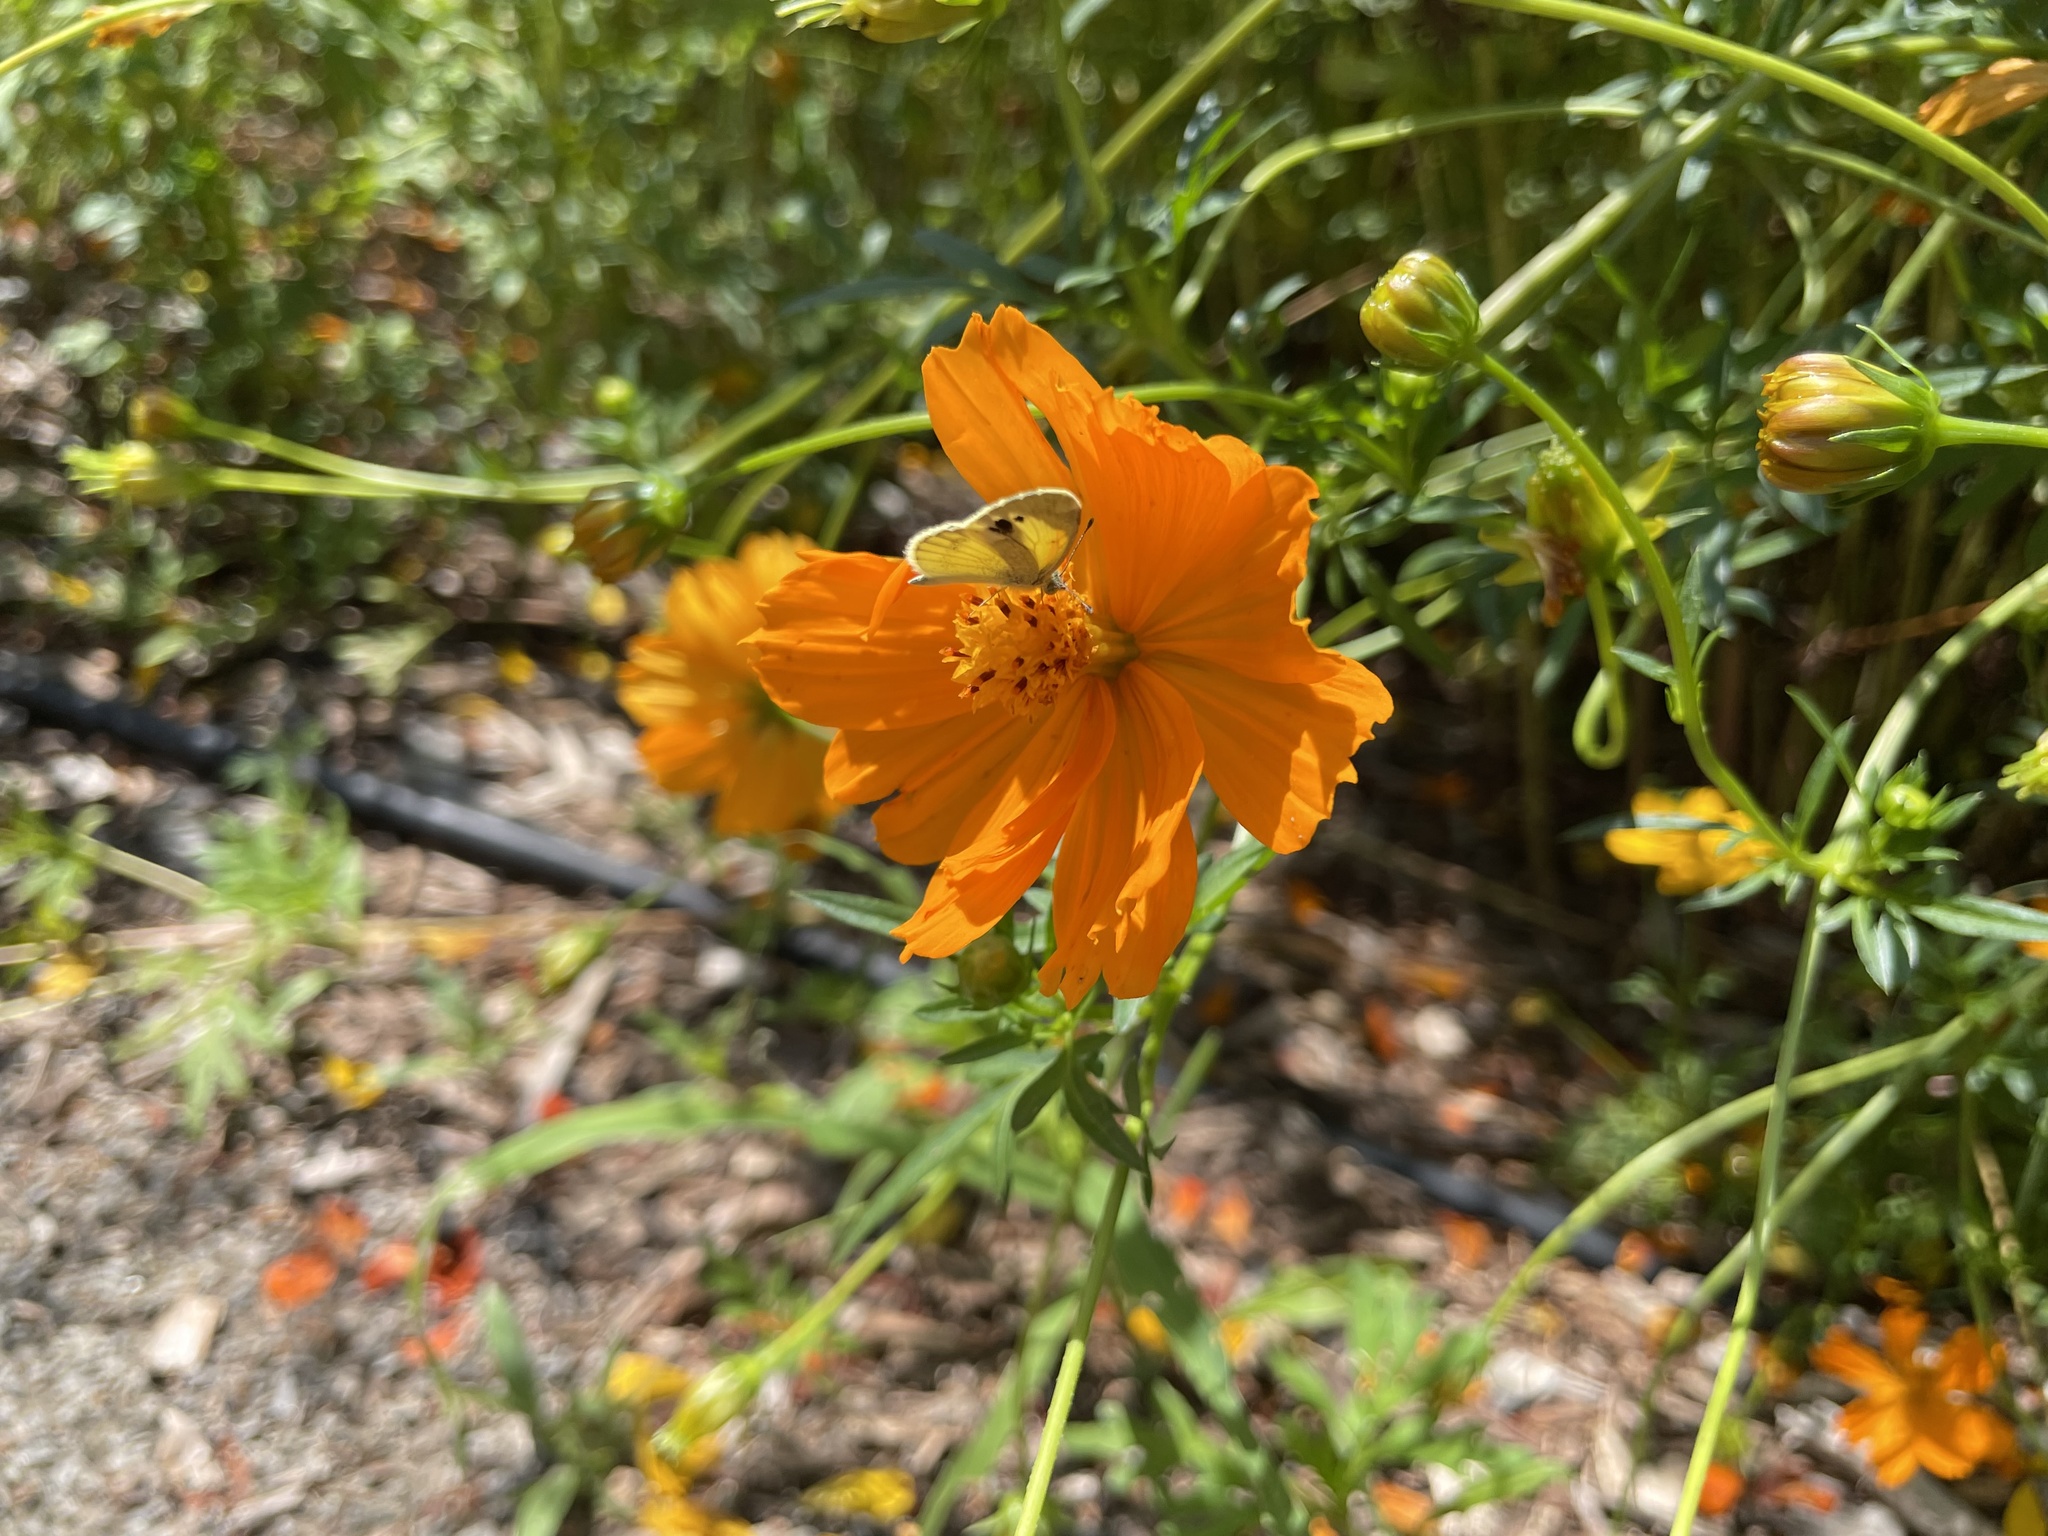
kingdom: Animalia
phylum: Arthropoda
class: Insecta
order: Lepidoptera
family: Pieridae
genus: Nathalis
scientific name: Nathalis iole
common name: Dainty sulphur
